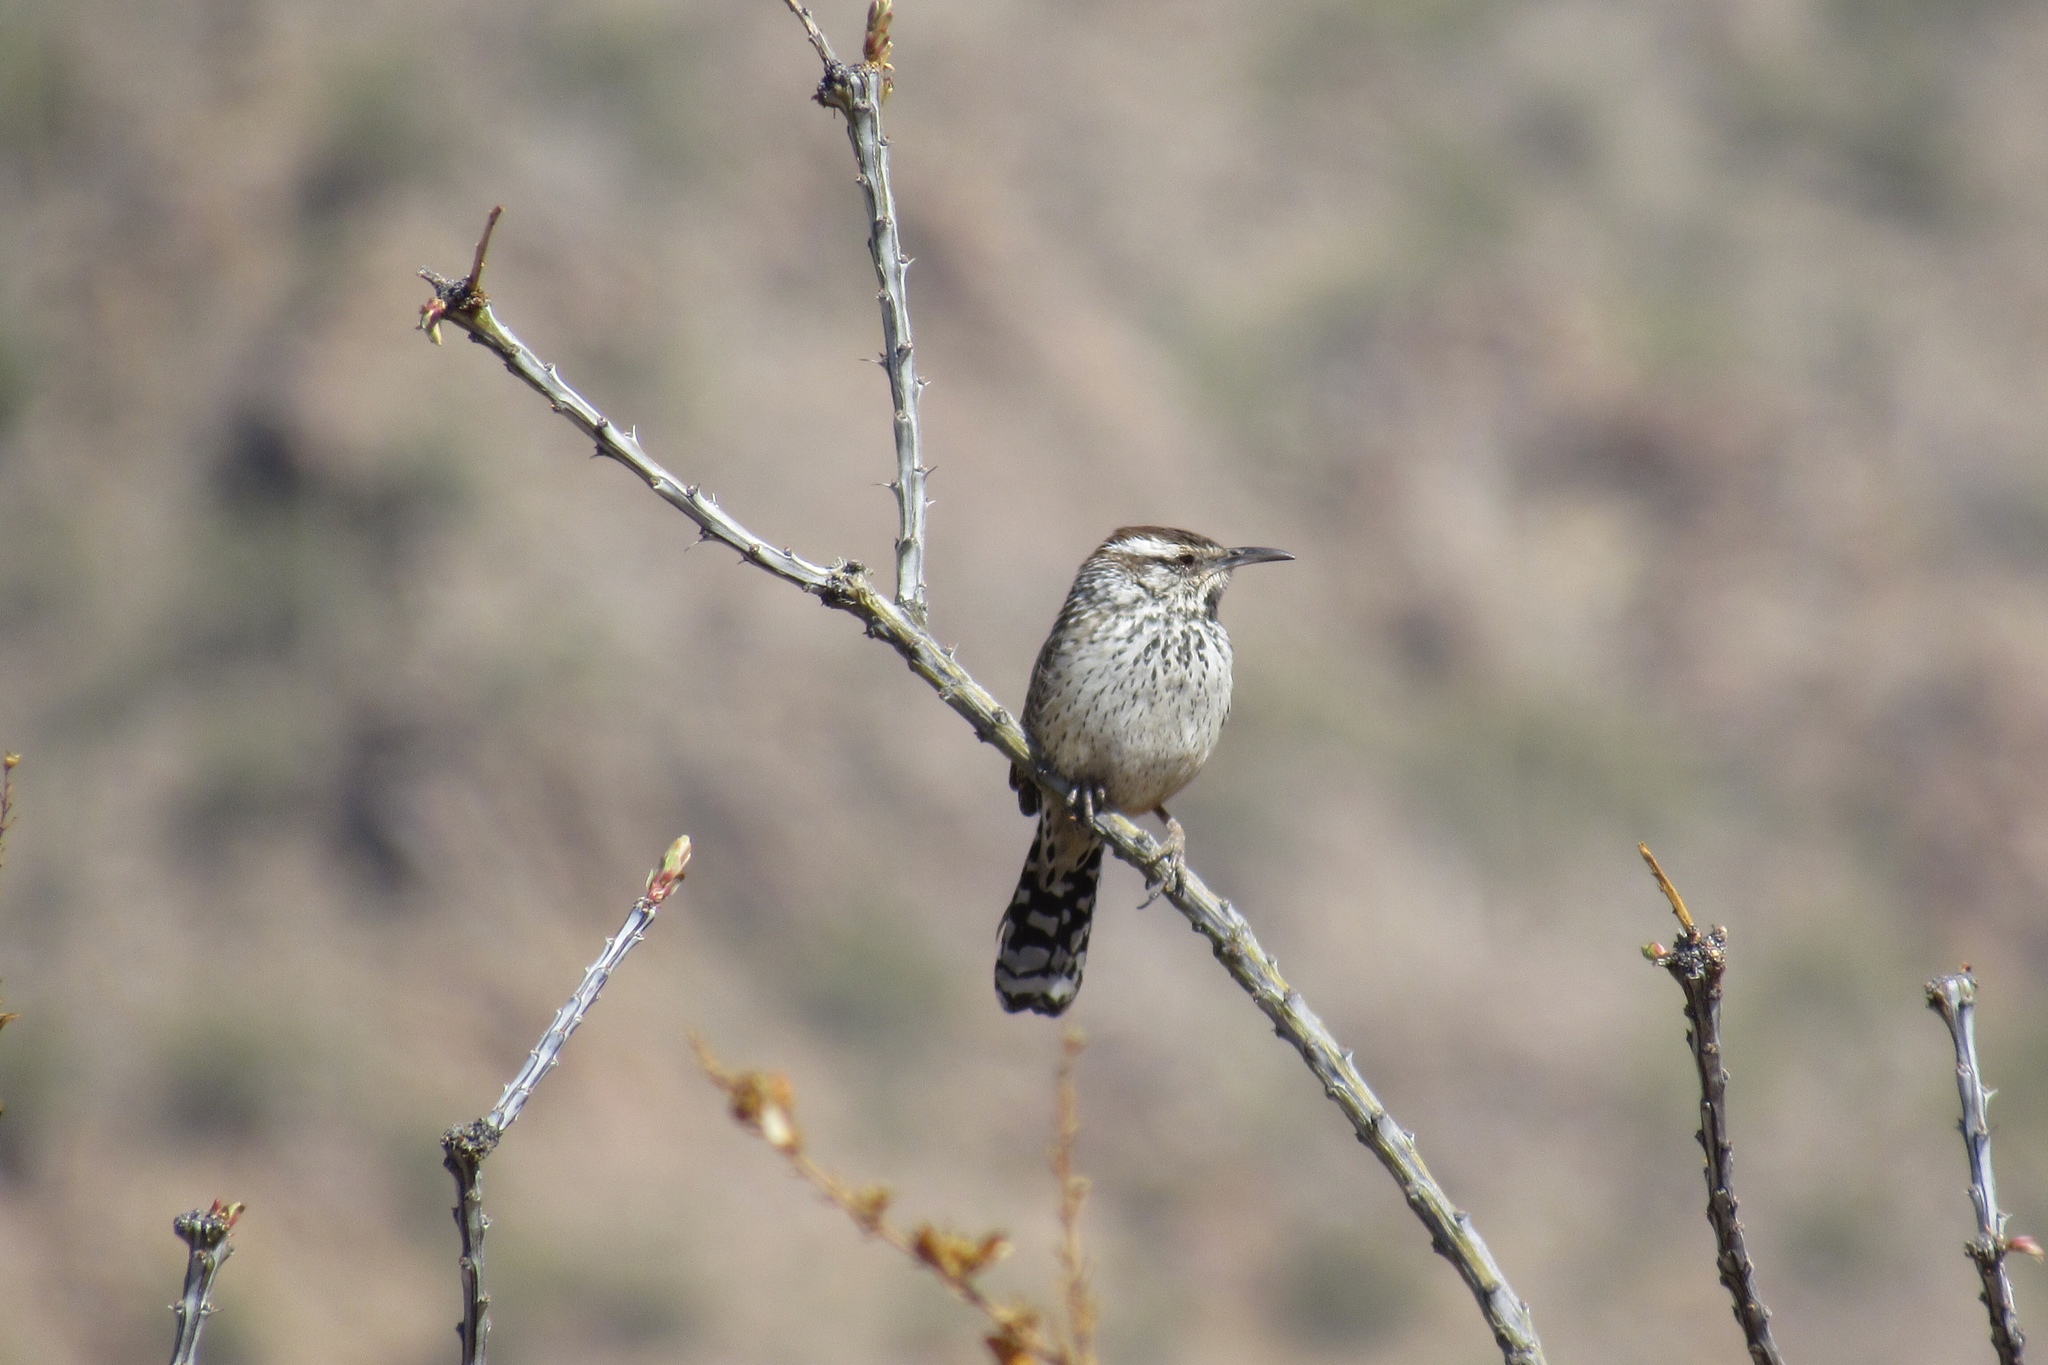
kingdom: Animalia
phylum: Chordata
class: Aves
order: Passeriformes
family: Troglodytidae
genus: Campylorhynchus
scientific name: Campylorhynchus brunneicapillus
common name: Cactus wren
